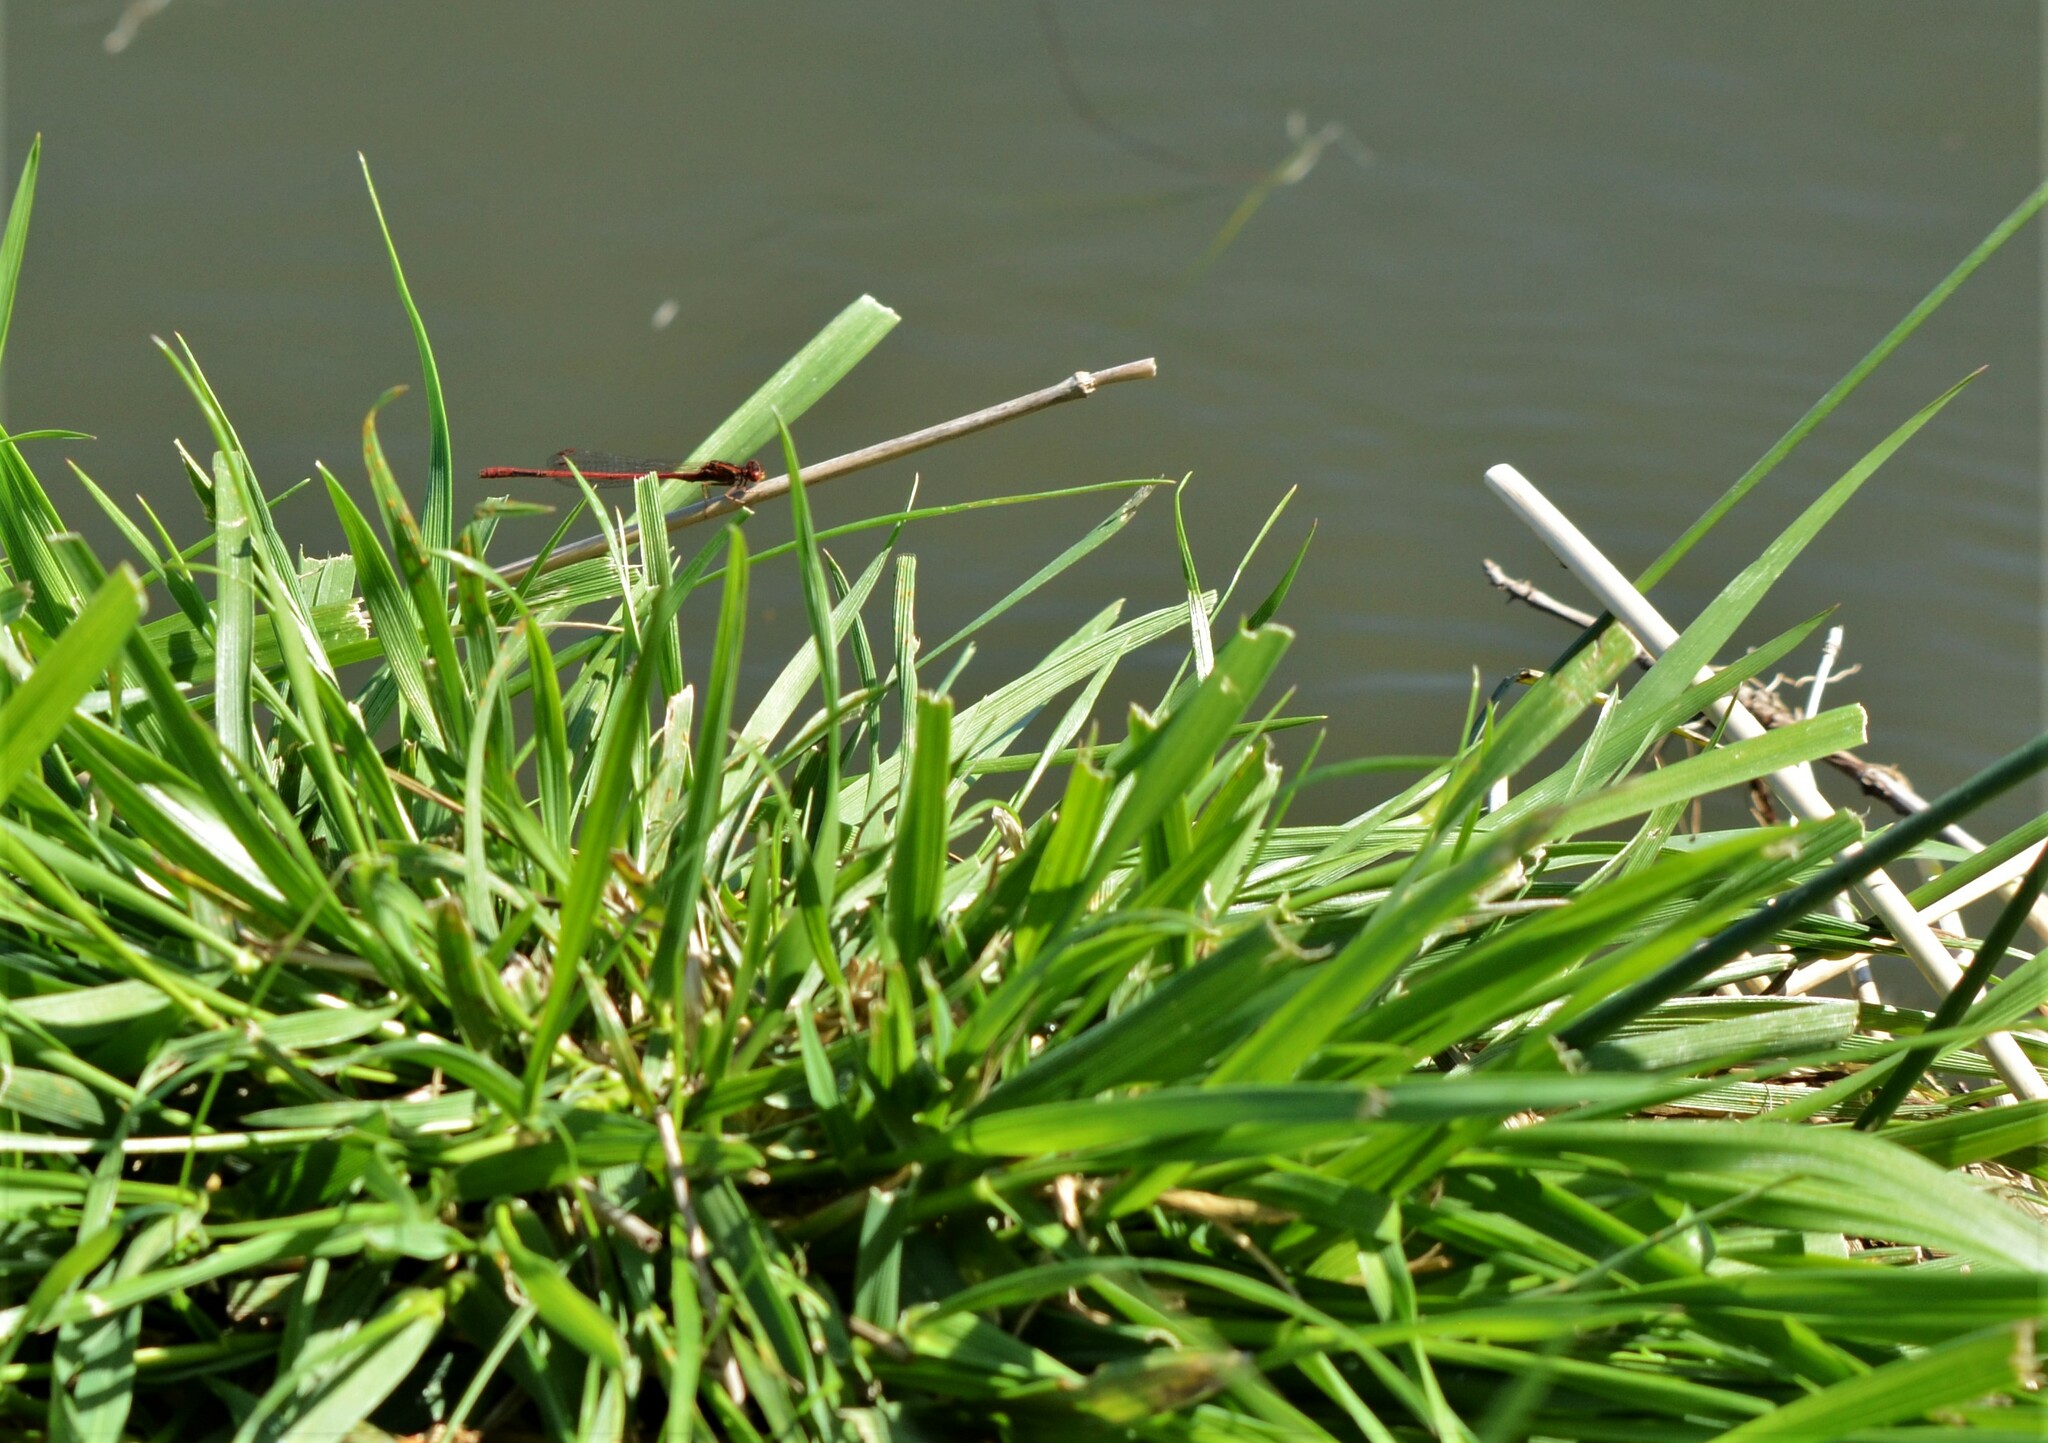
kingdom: Animalia
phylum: Arthropoda
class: Insecta
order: Odonata
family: Coenagrionidae
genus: Xanthocnemis
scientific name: Xanthocnemis zealandica
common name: Common redcoat damselfly
